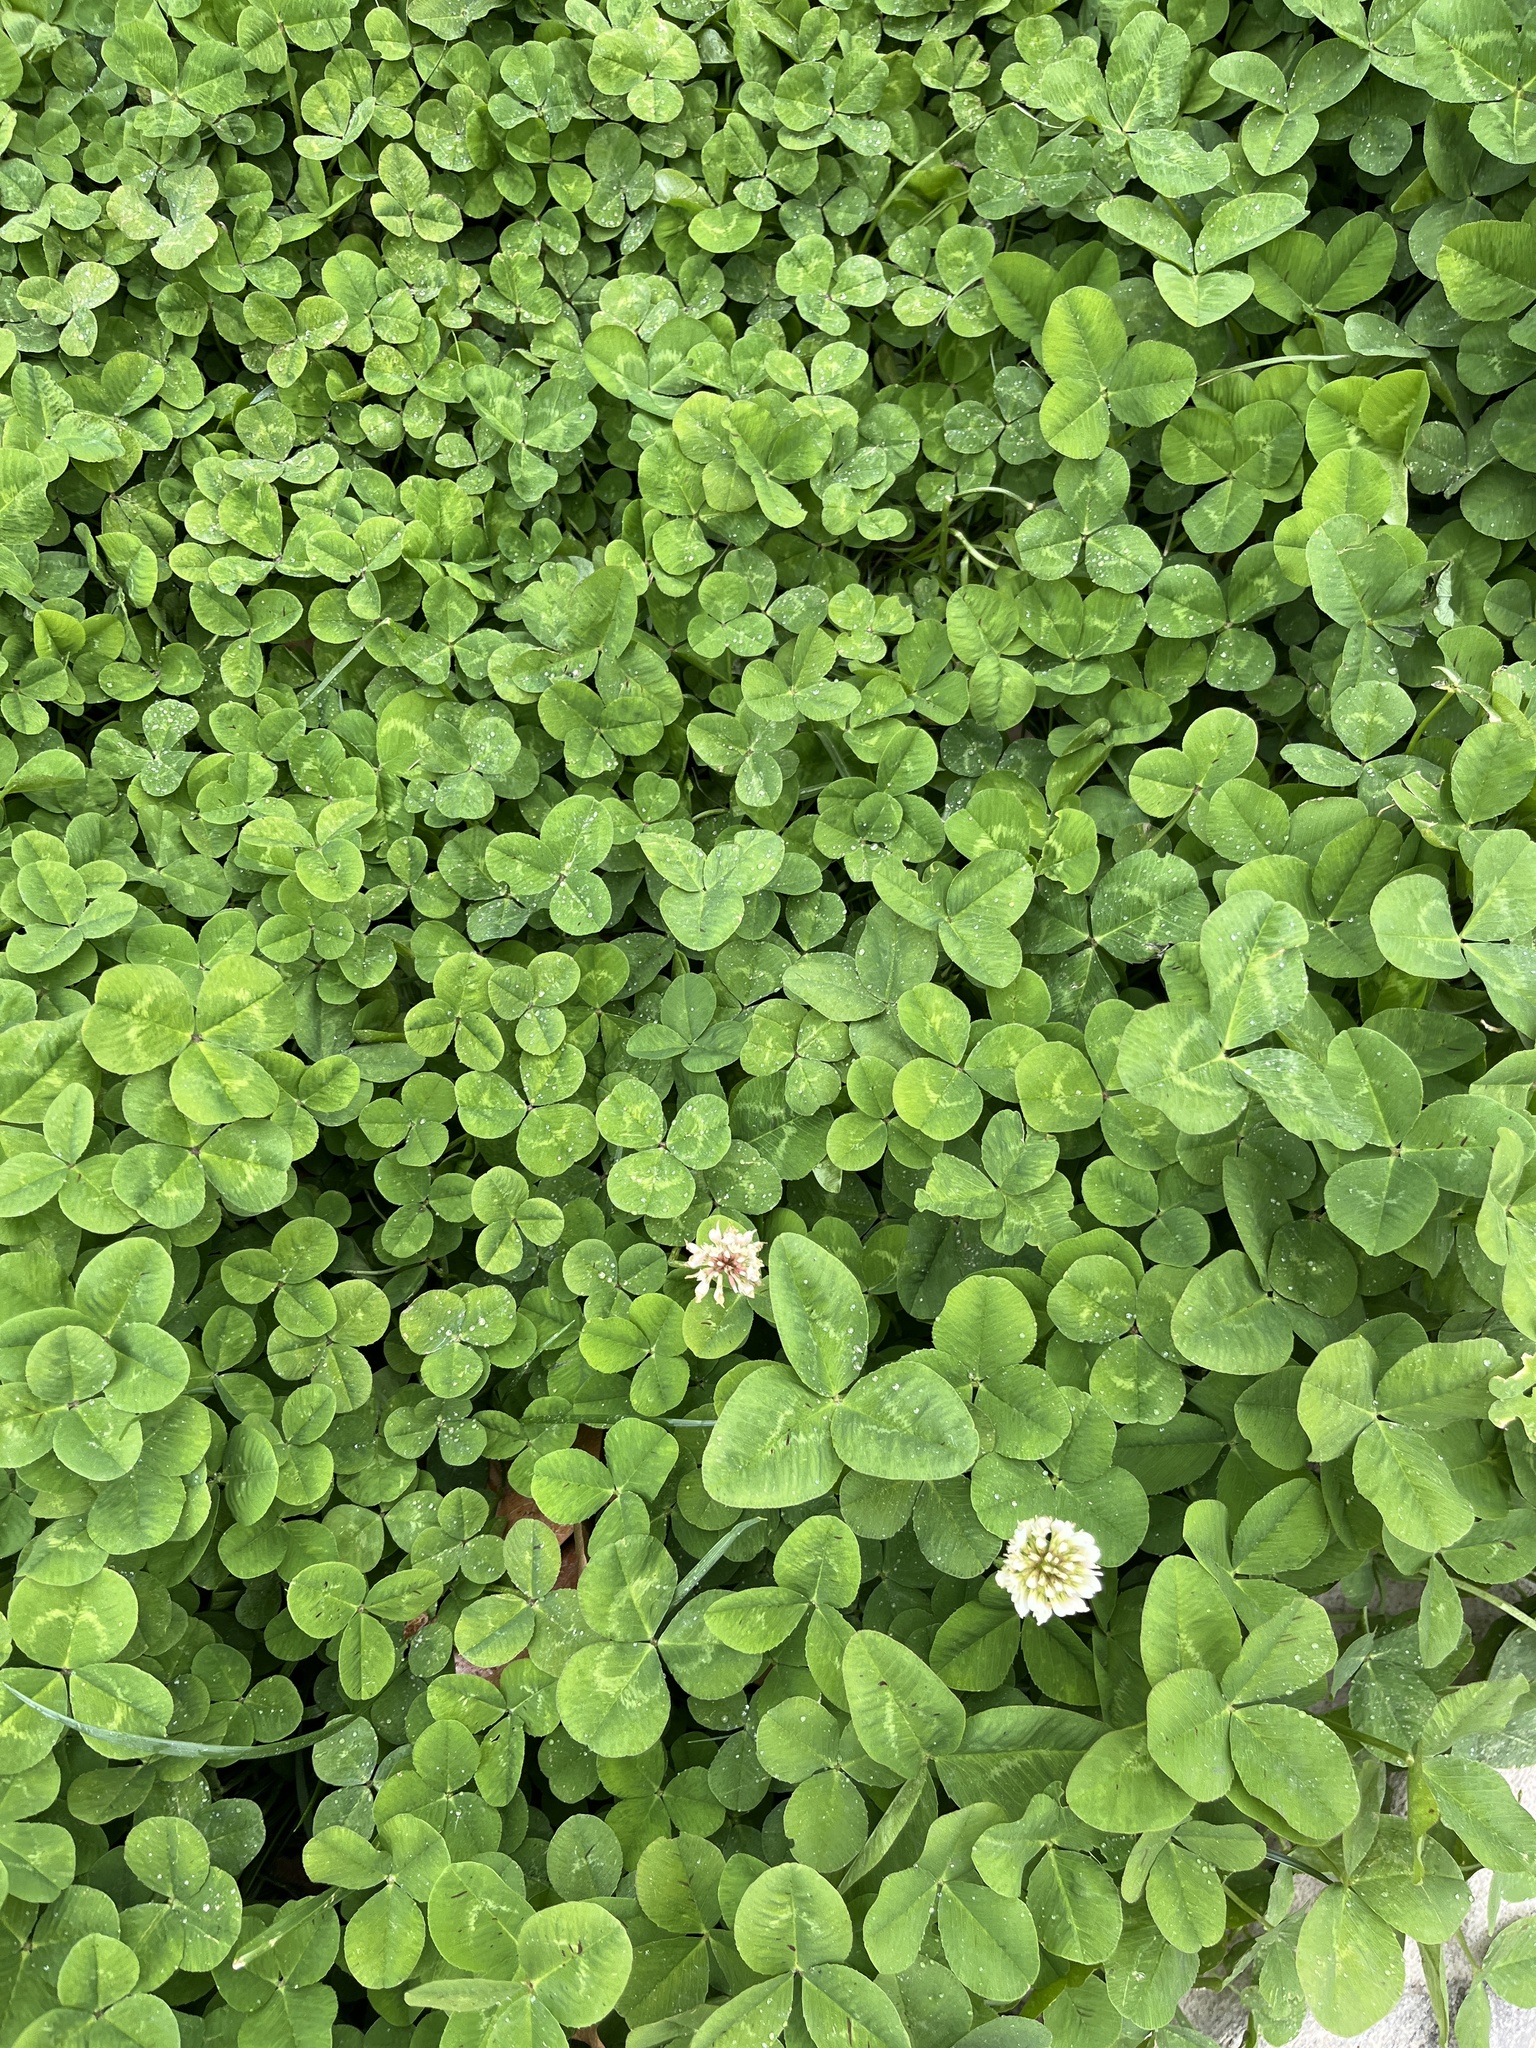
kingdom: Plantae
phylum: Tracheophyta
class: Magnoliopsida
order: Fabales
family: Fabaceae
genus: Trifolium
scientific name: Trifolium repens
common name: White clover
